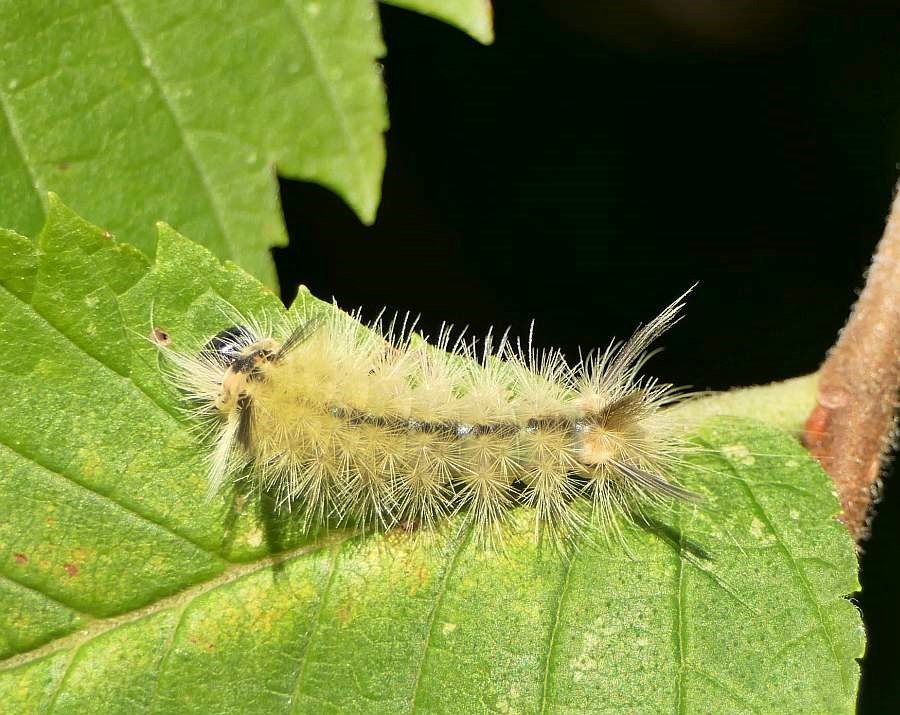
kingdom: Animalia
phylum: Arthropoda
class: Insecta
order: Lepidoptera
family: Erebidae
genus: Halysidota
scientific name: Halysidota tessellaris
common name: Banded tussock moth
